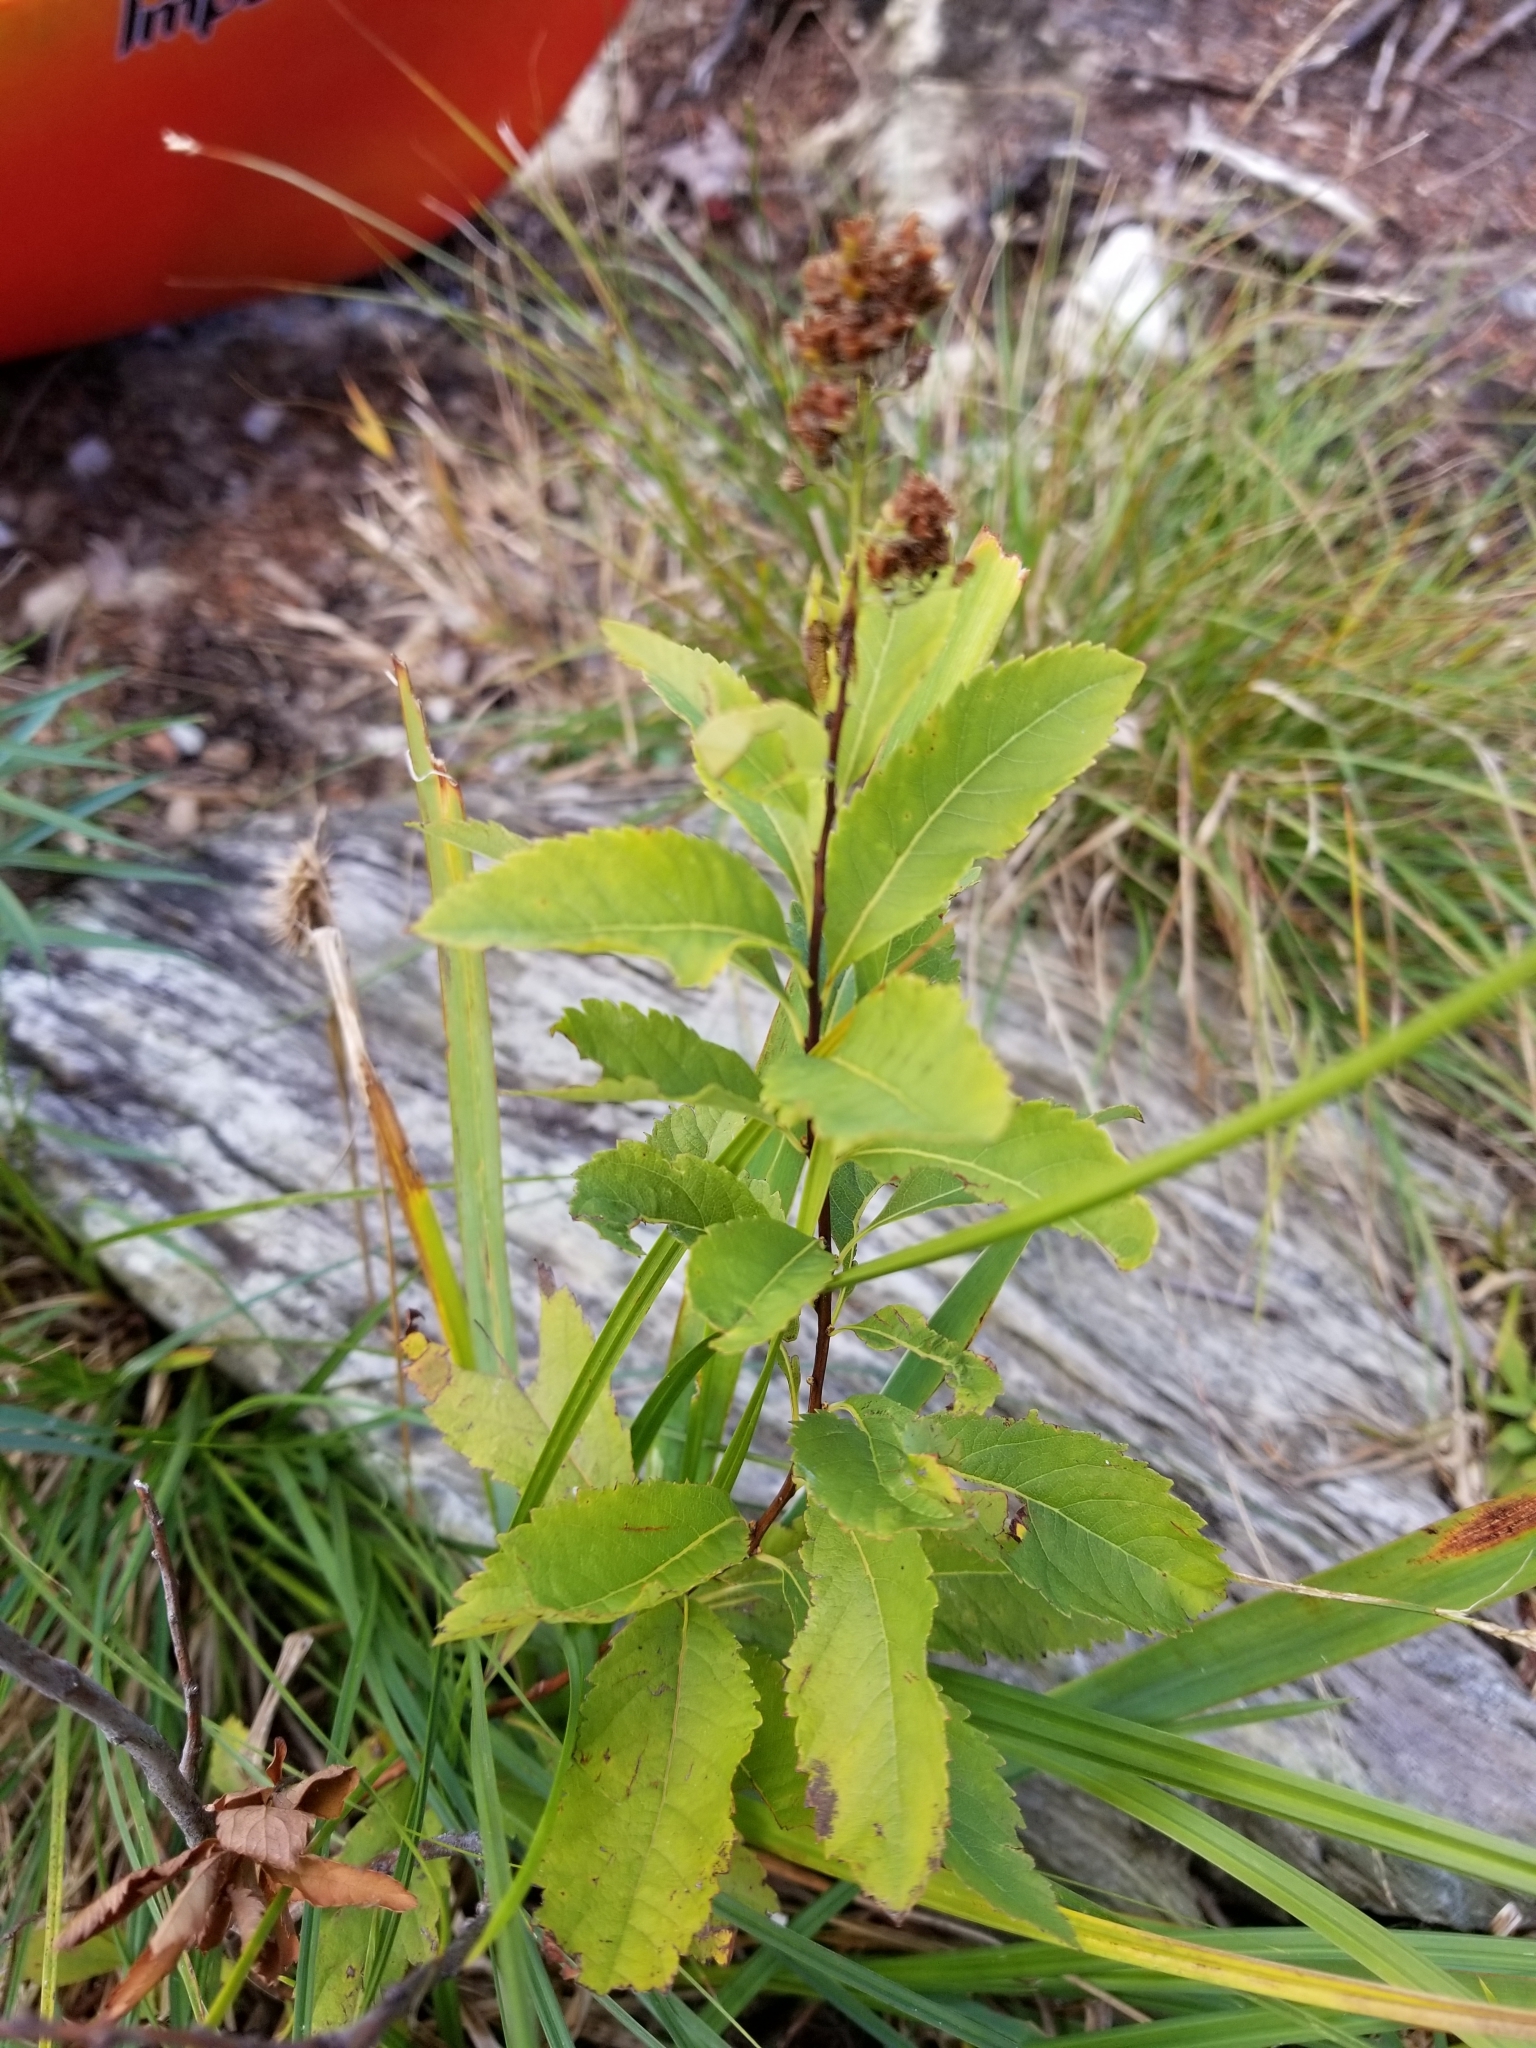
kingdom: Plantae
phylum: Tracheophyta
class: Magnoliopsida
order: Rosales
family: Rosaceae
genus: Spiraea
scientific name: Spiraea tomentosa
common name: Hardhack
